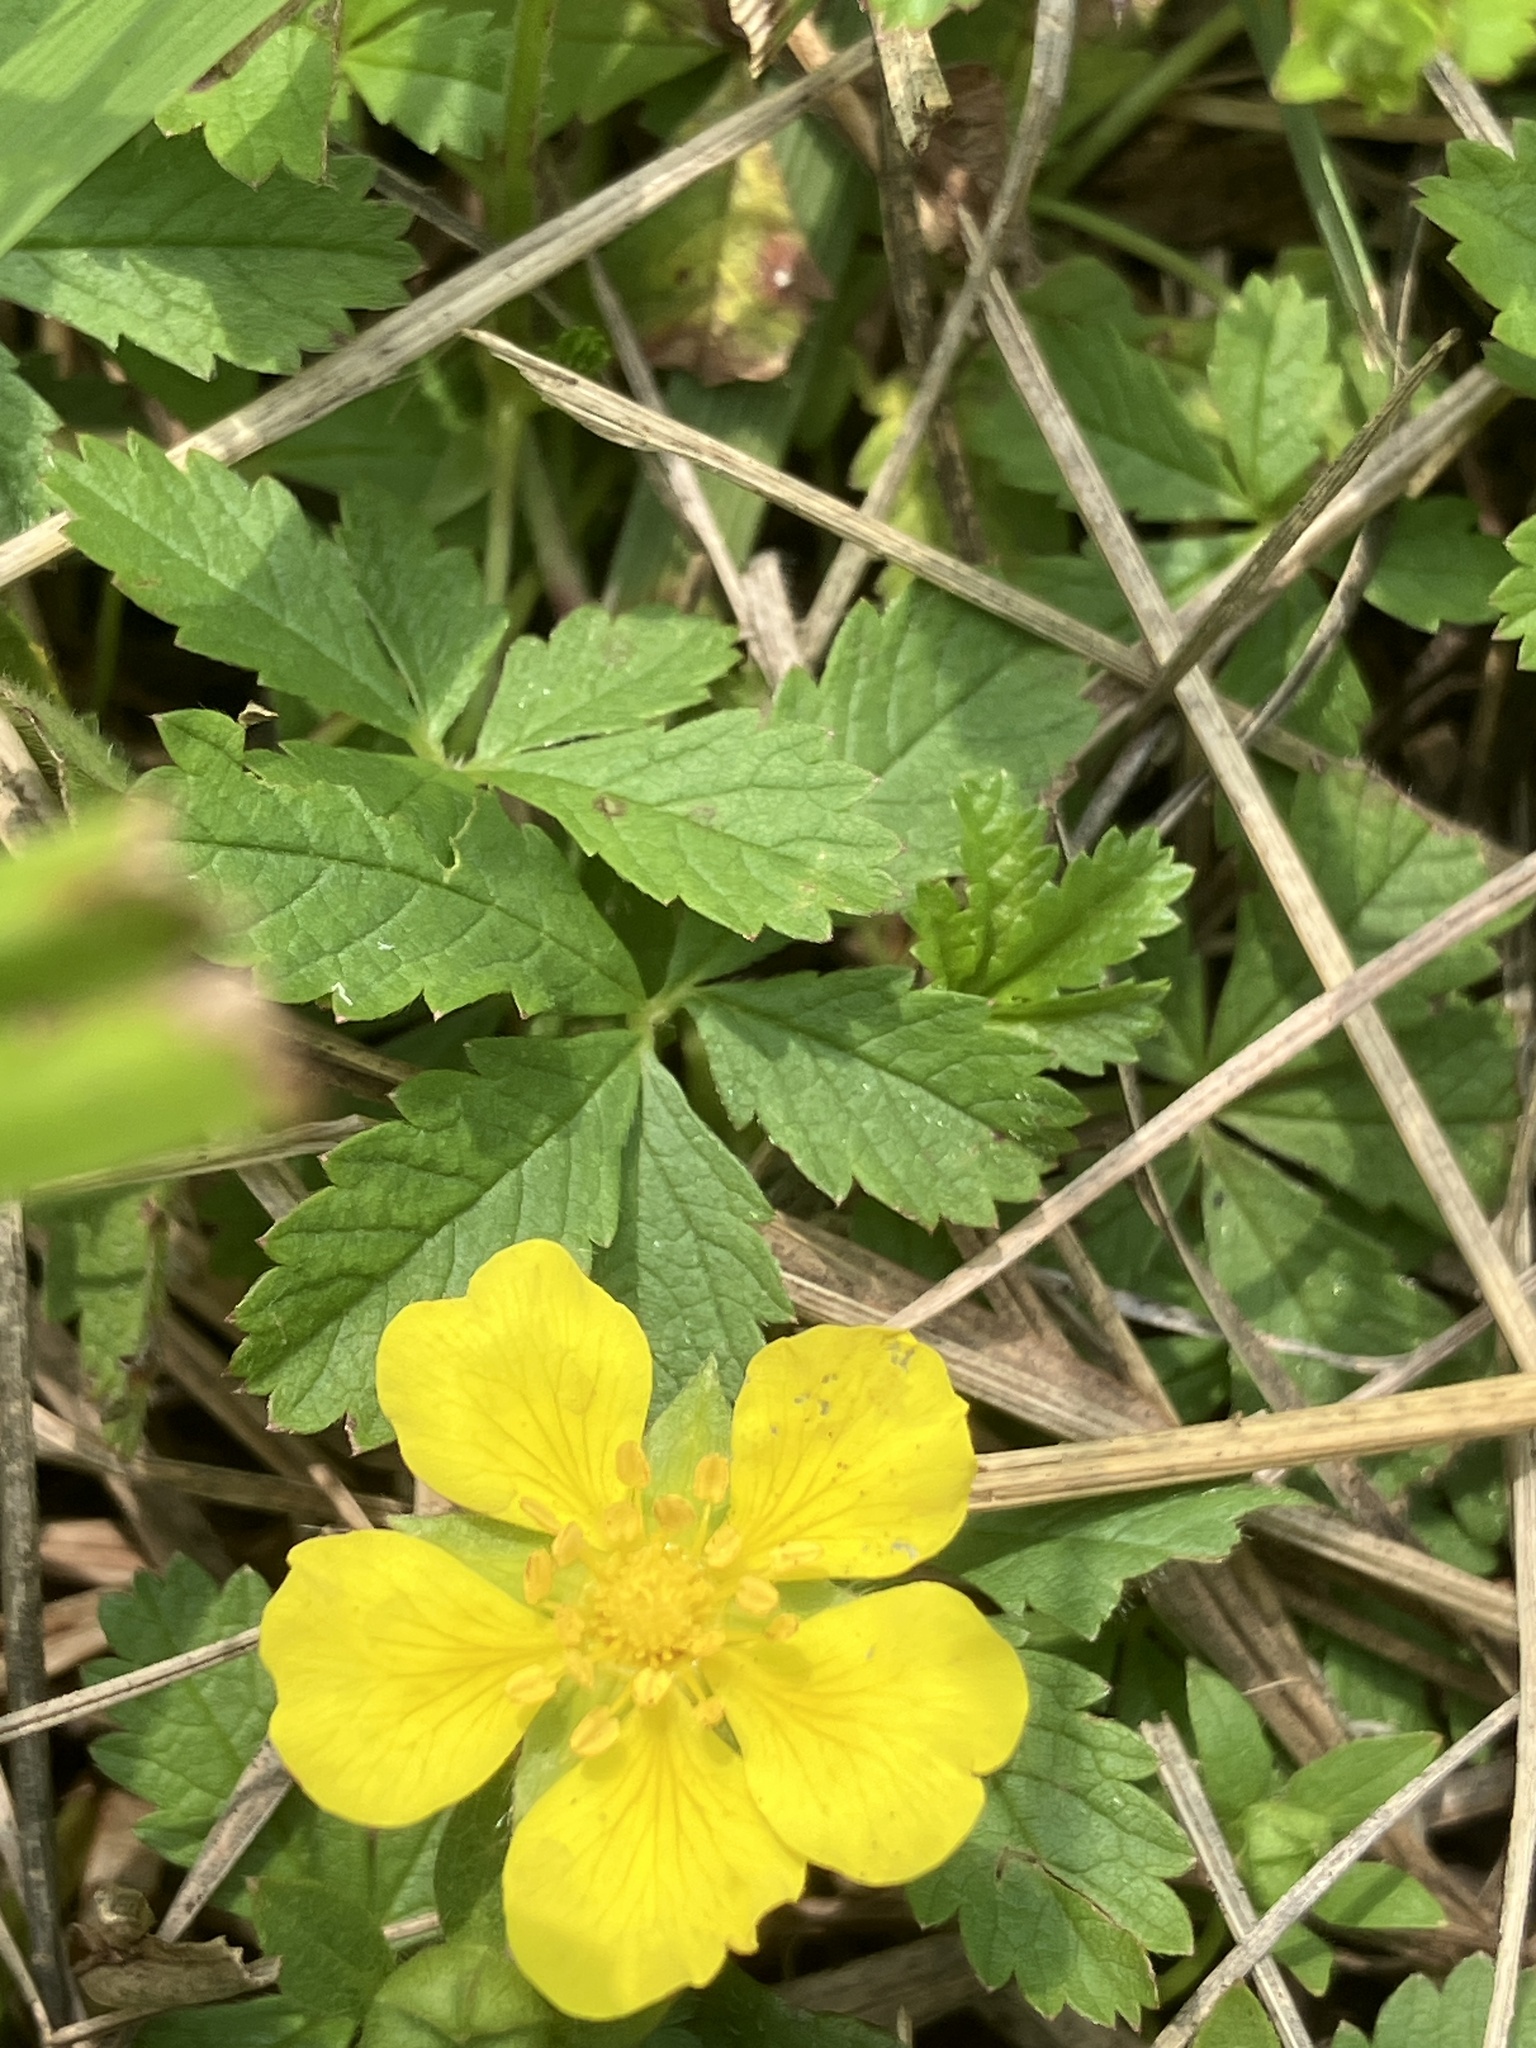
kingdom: Plantae
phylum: Tracheophyta
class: Magnoliopsida
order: Rosales
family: Rosaceae
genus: Potentilla
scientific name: Potentilla reptans
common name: Creeping cinquefoil
